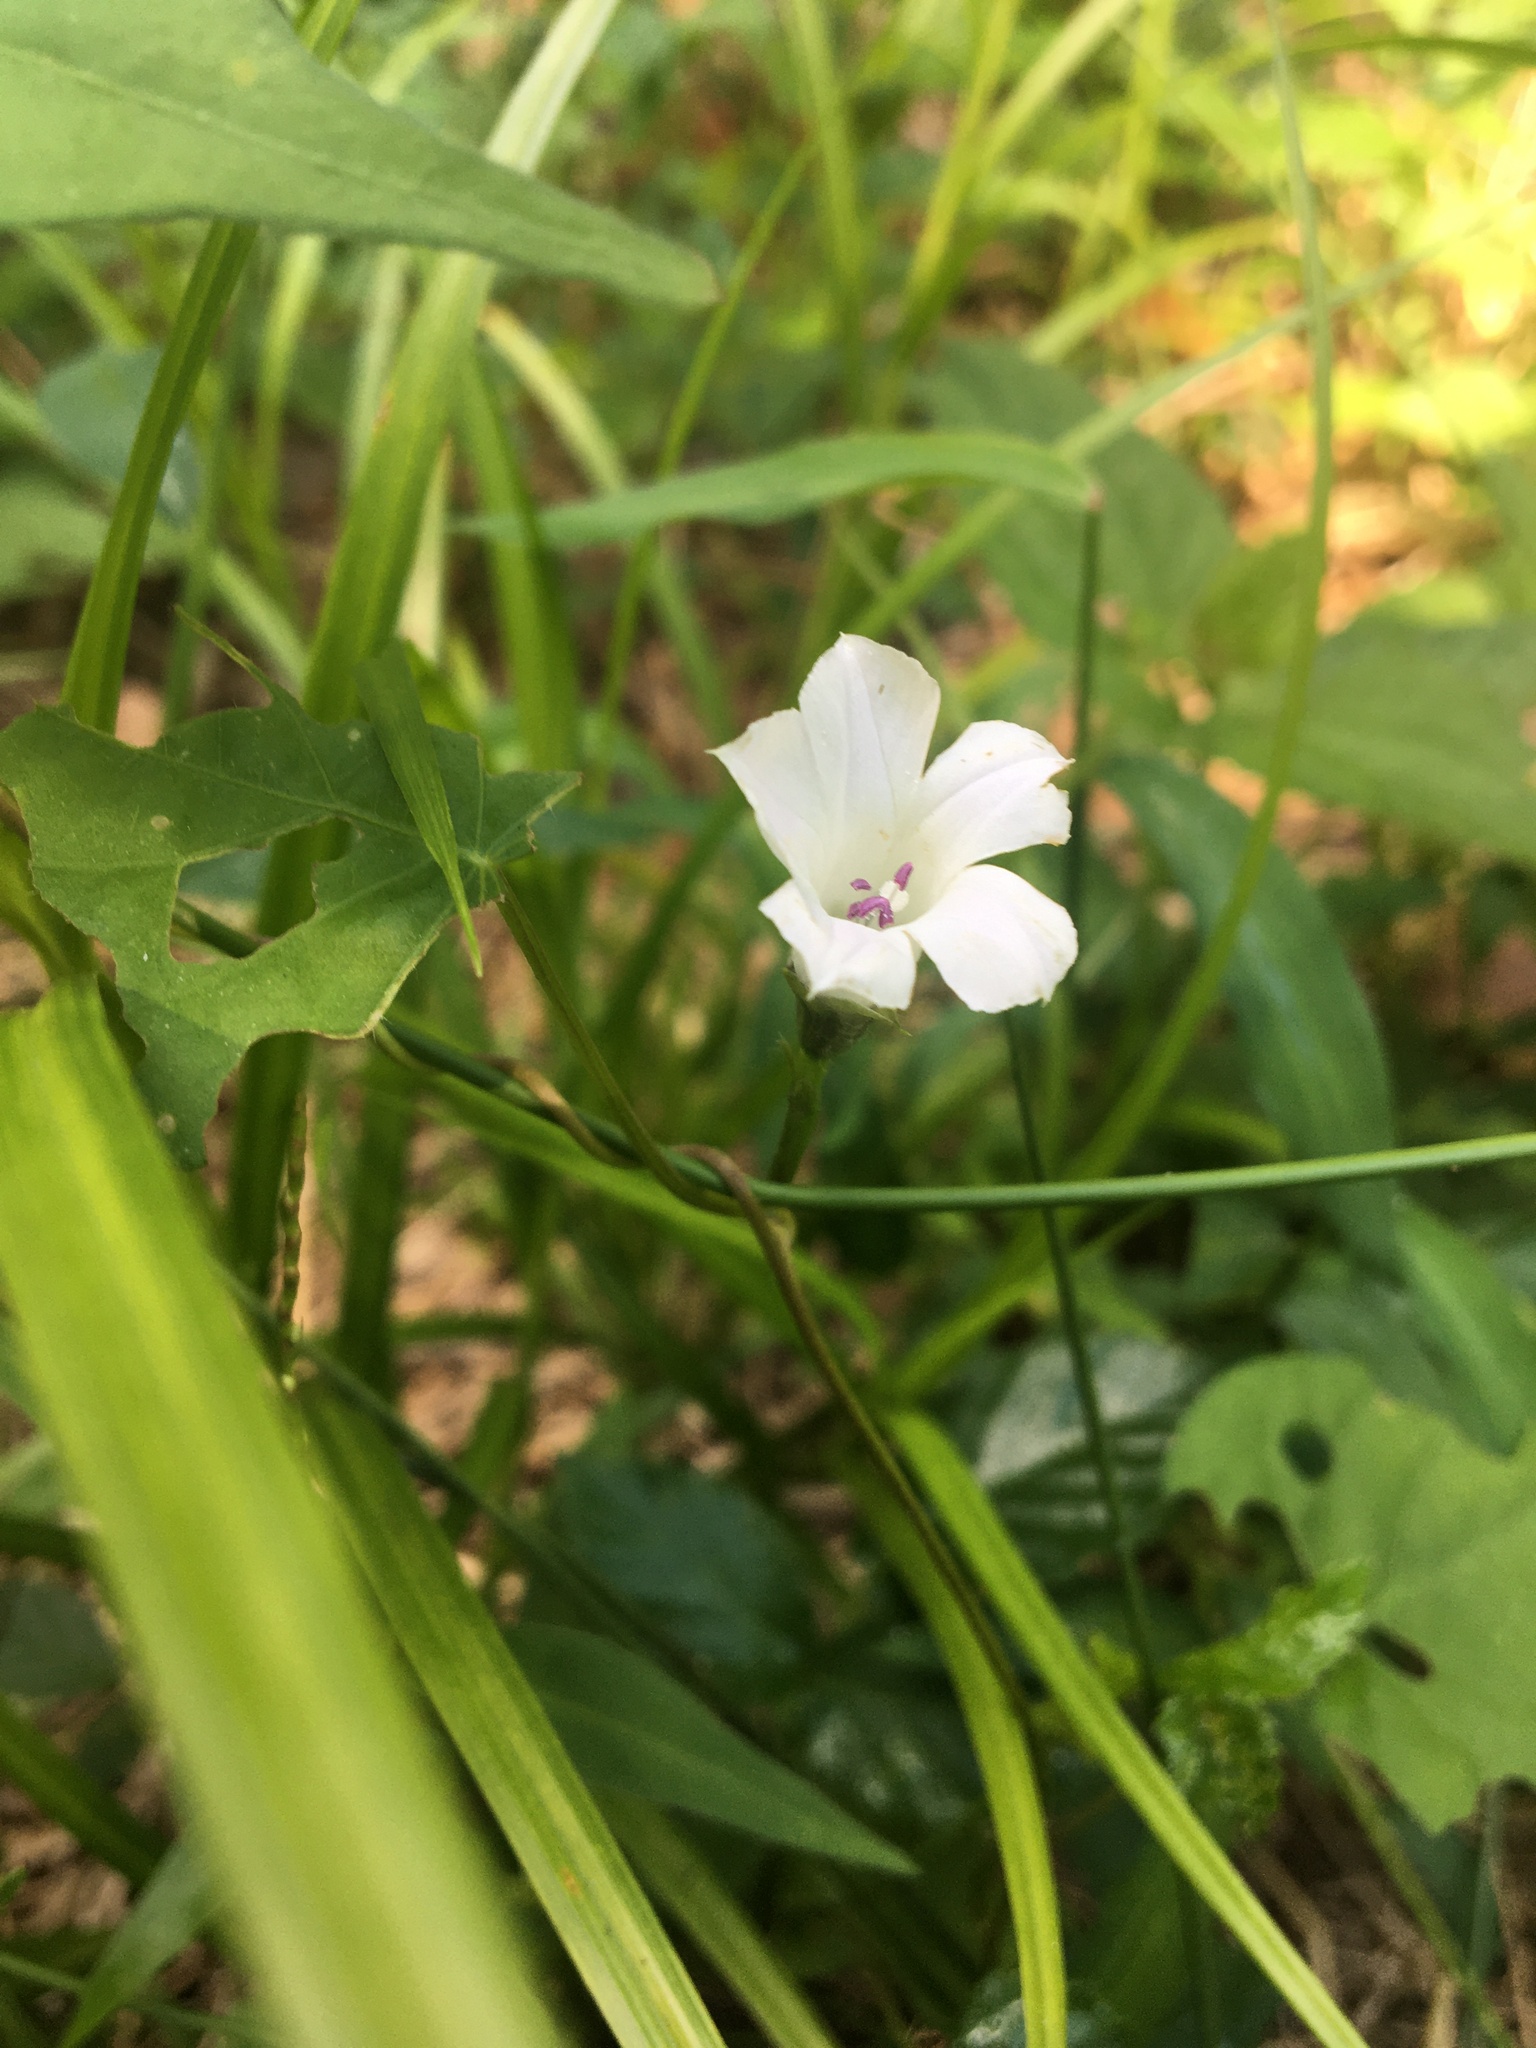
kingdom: Plantae
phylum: Tracheophyta
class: Magnoliopsida
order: Solanales
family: Convolvulaceae
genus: Ipomoea
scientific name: Ipomoea lacunosa
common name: White morning-glory
